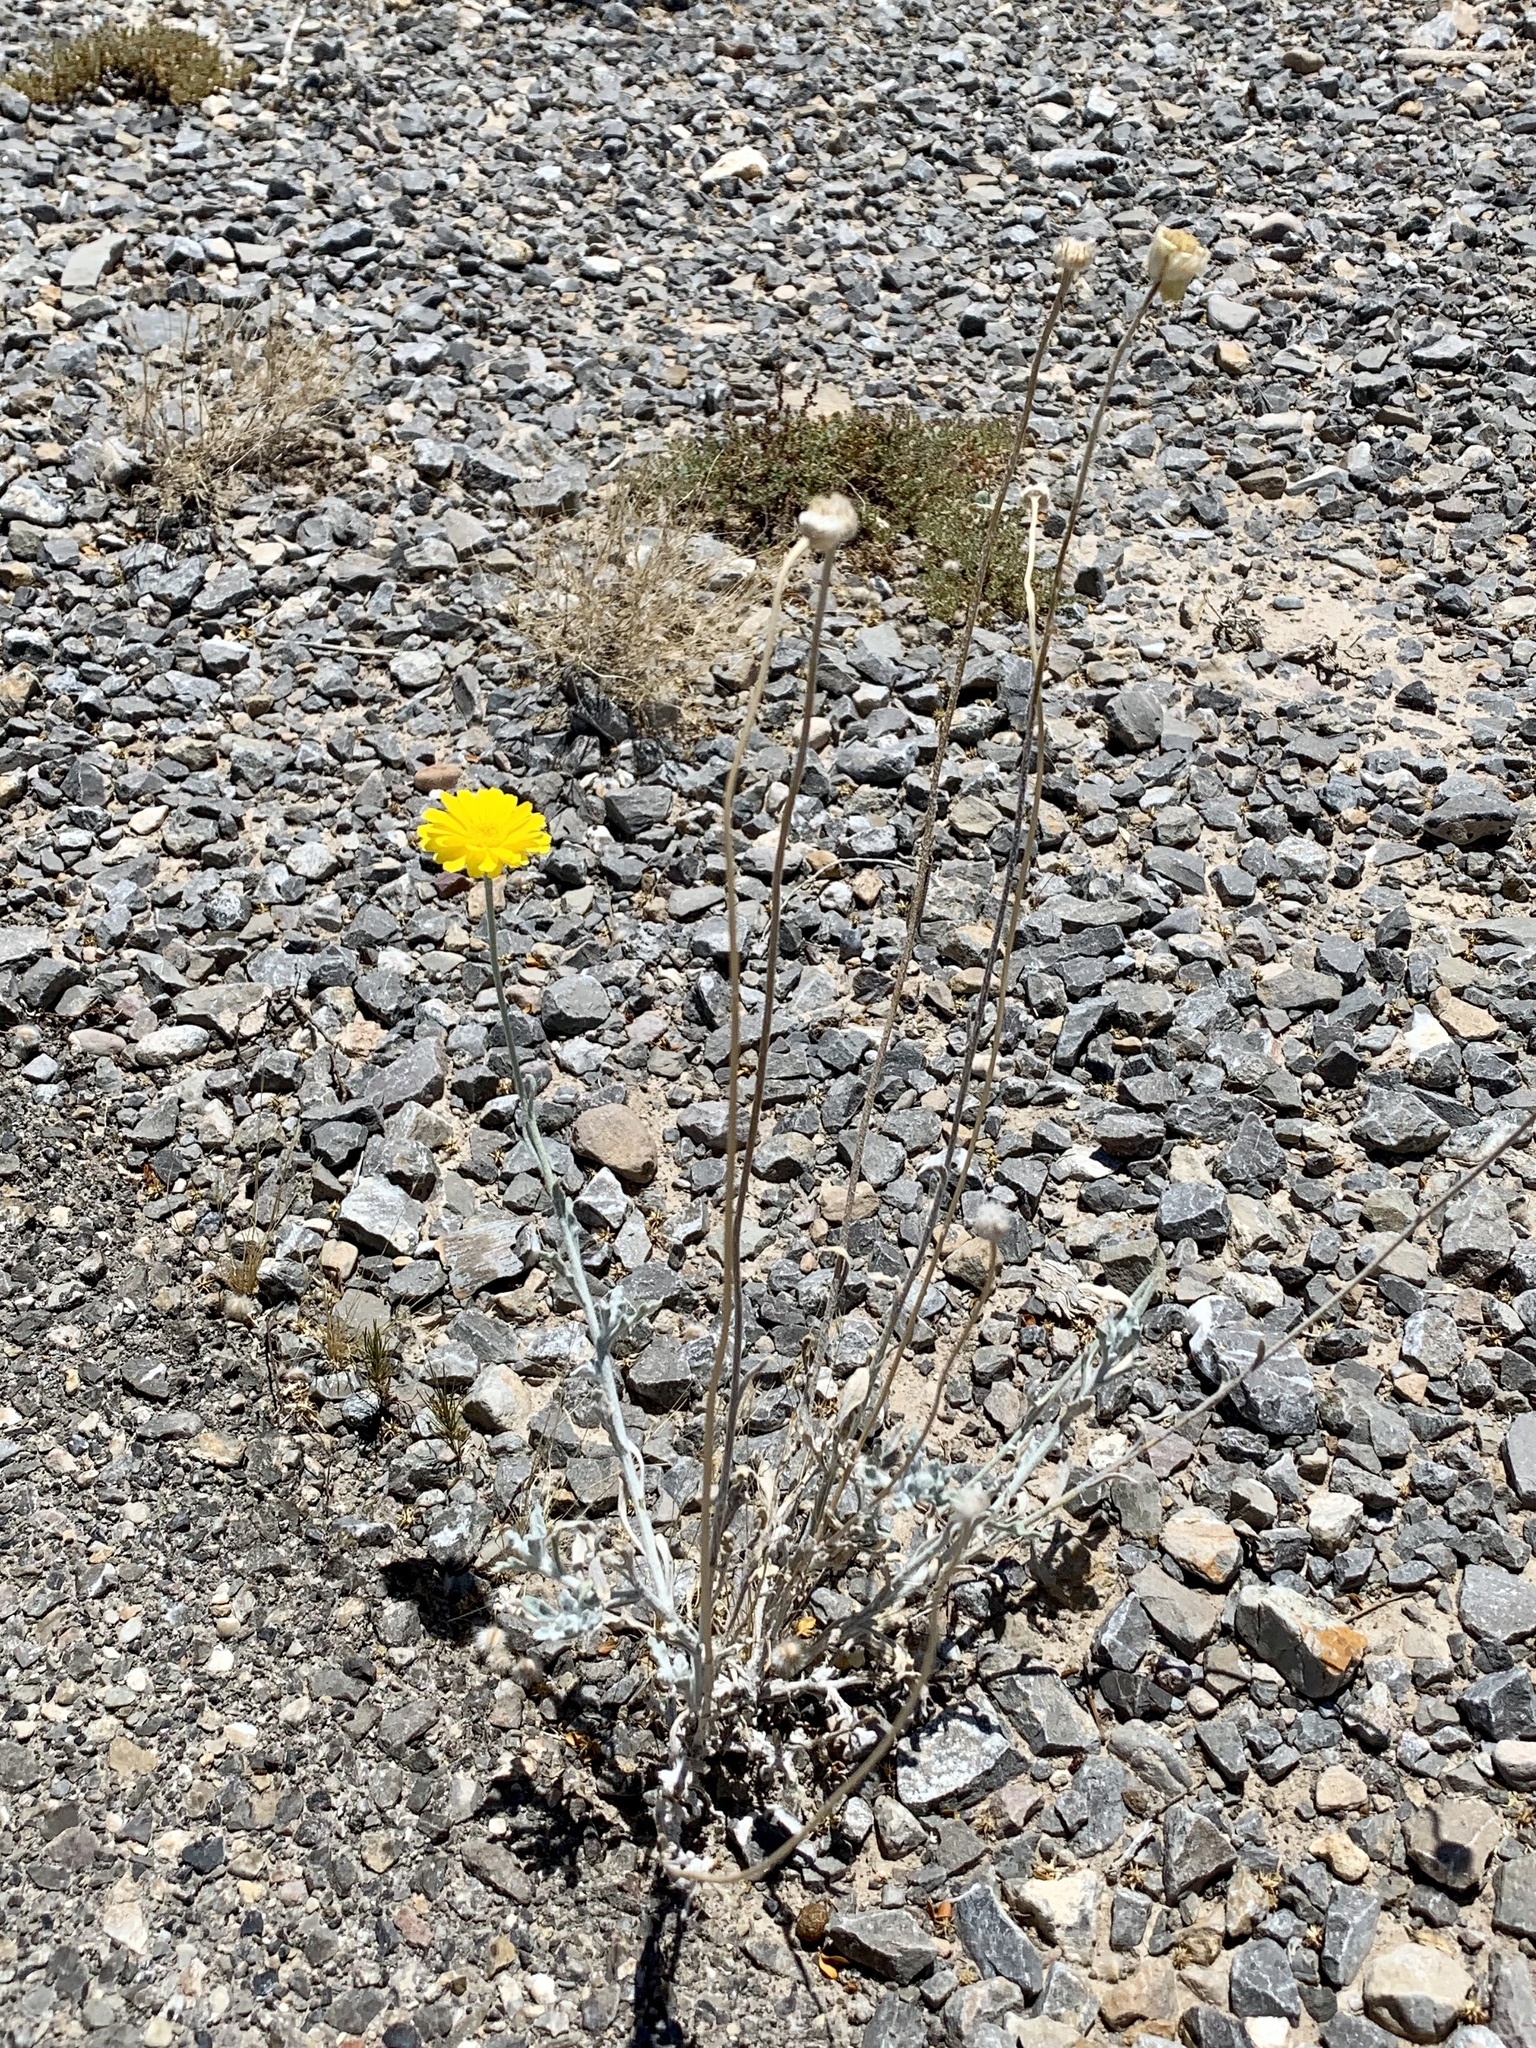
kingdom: Plantae
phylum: Tracheophyta
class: Magnoliopsida
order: Asterales
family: Asteraceae
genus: Baileya
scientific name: Baileya multiradiata
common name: Desert-marigold
